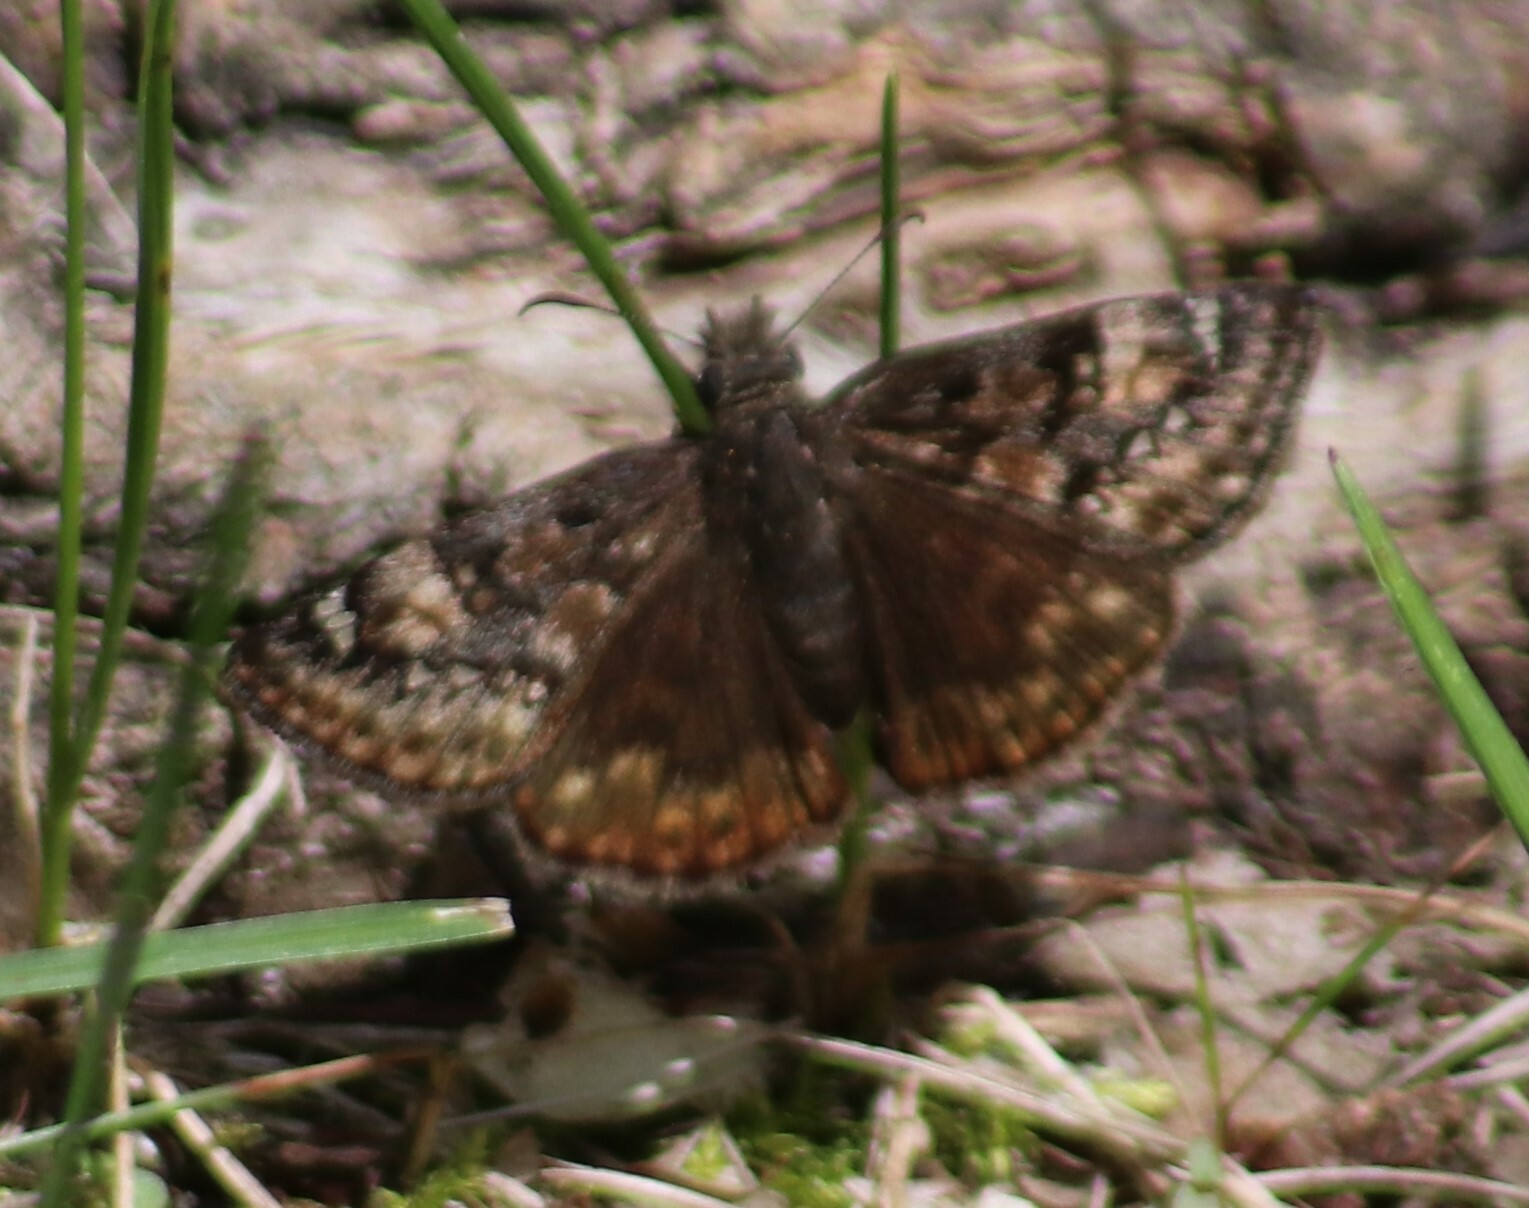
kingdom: Animalia
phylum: Arthropoda
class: Insecta
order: Lepidoptera
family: Hesperiidae
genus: Erynnis
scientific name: Erynnis juvenalis
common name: Juvenal's duskywing
